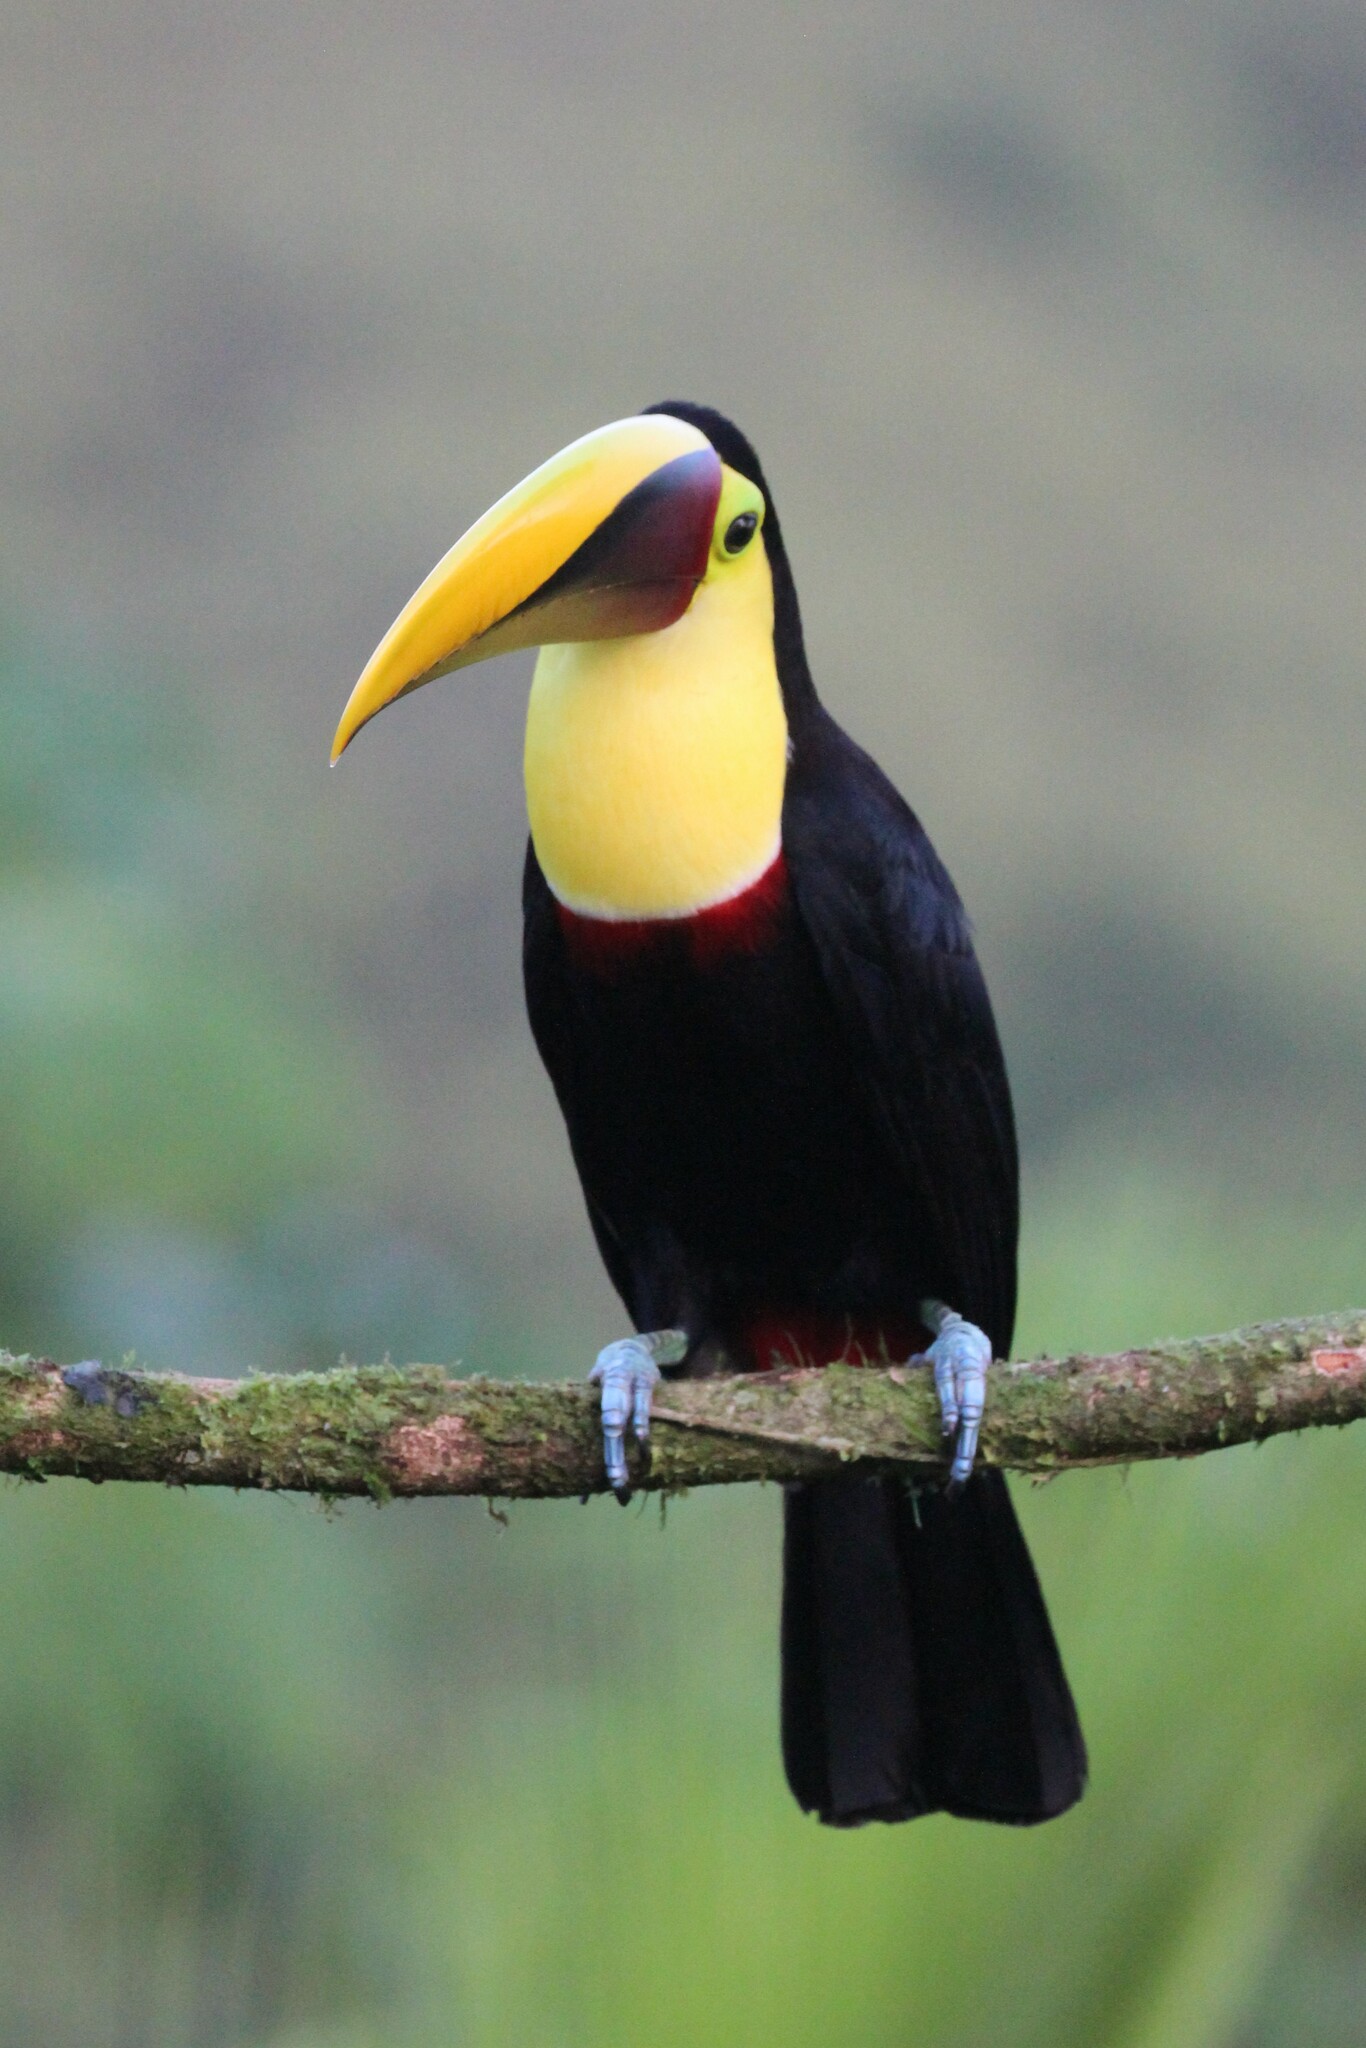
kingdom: Animalia
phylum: Chordata
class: Aves
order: Piciformes
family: Ramphastidae
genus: Ramphastos
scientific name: Ramphastos ambiguus
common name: Yellow-throated toucan
